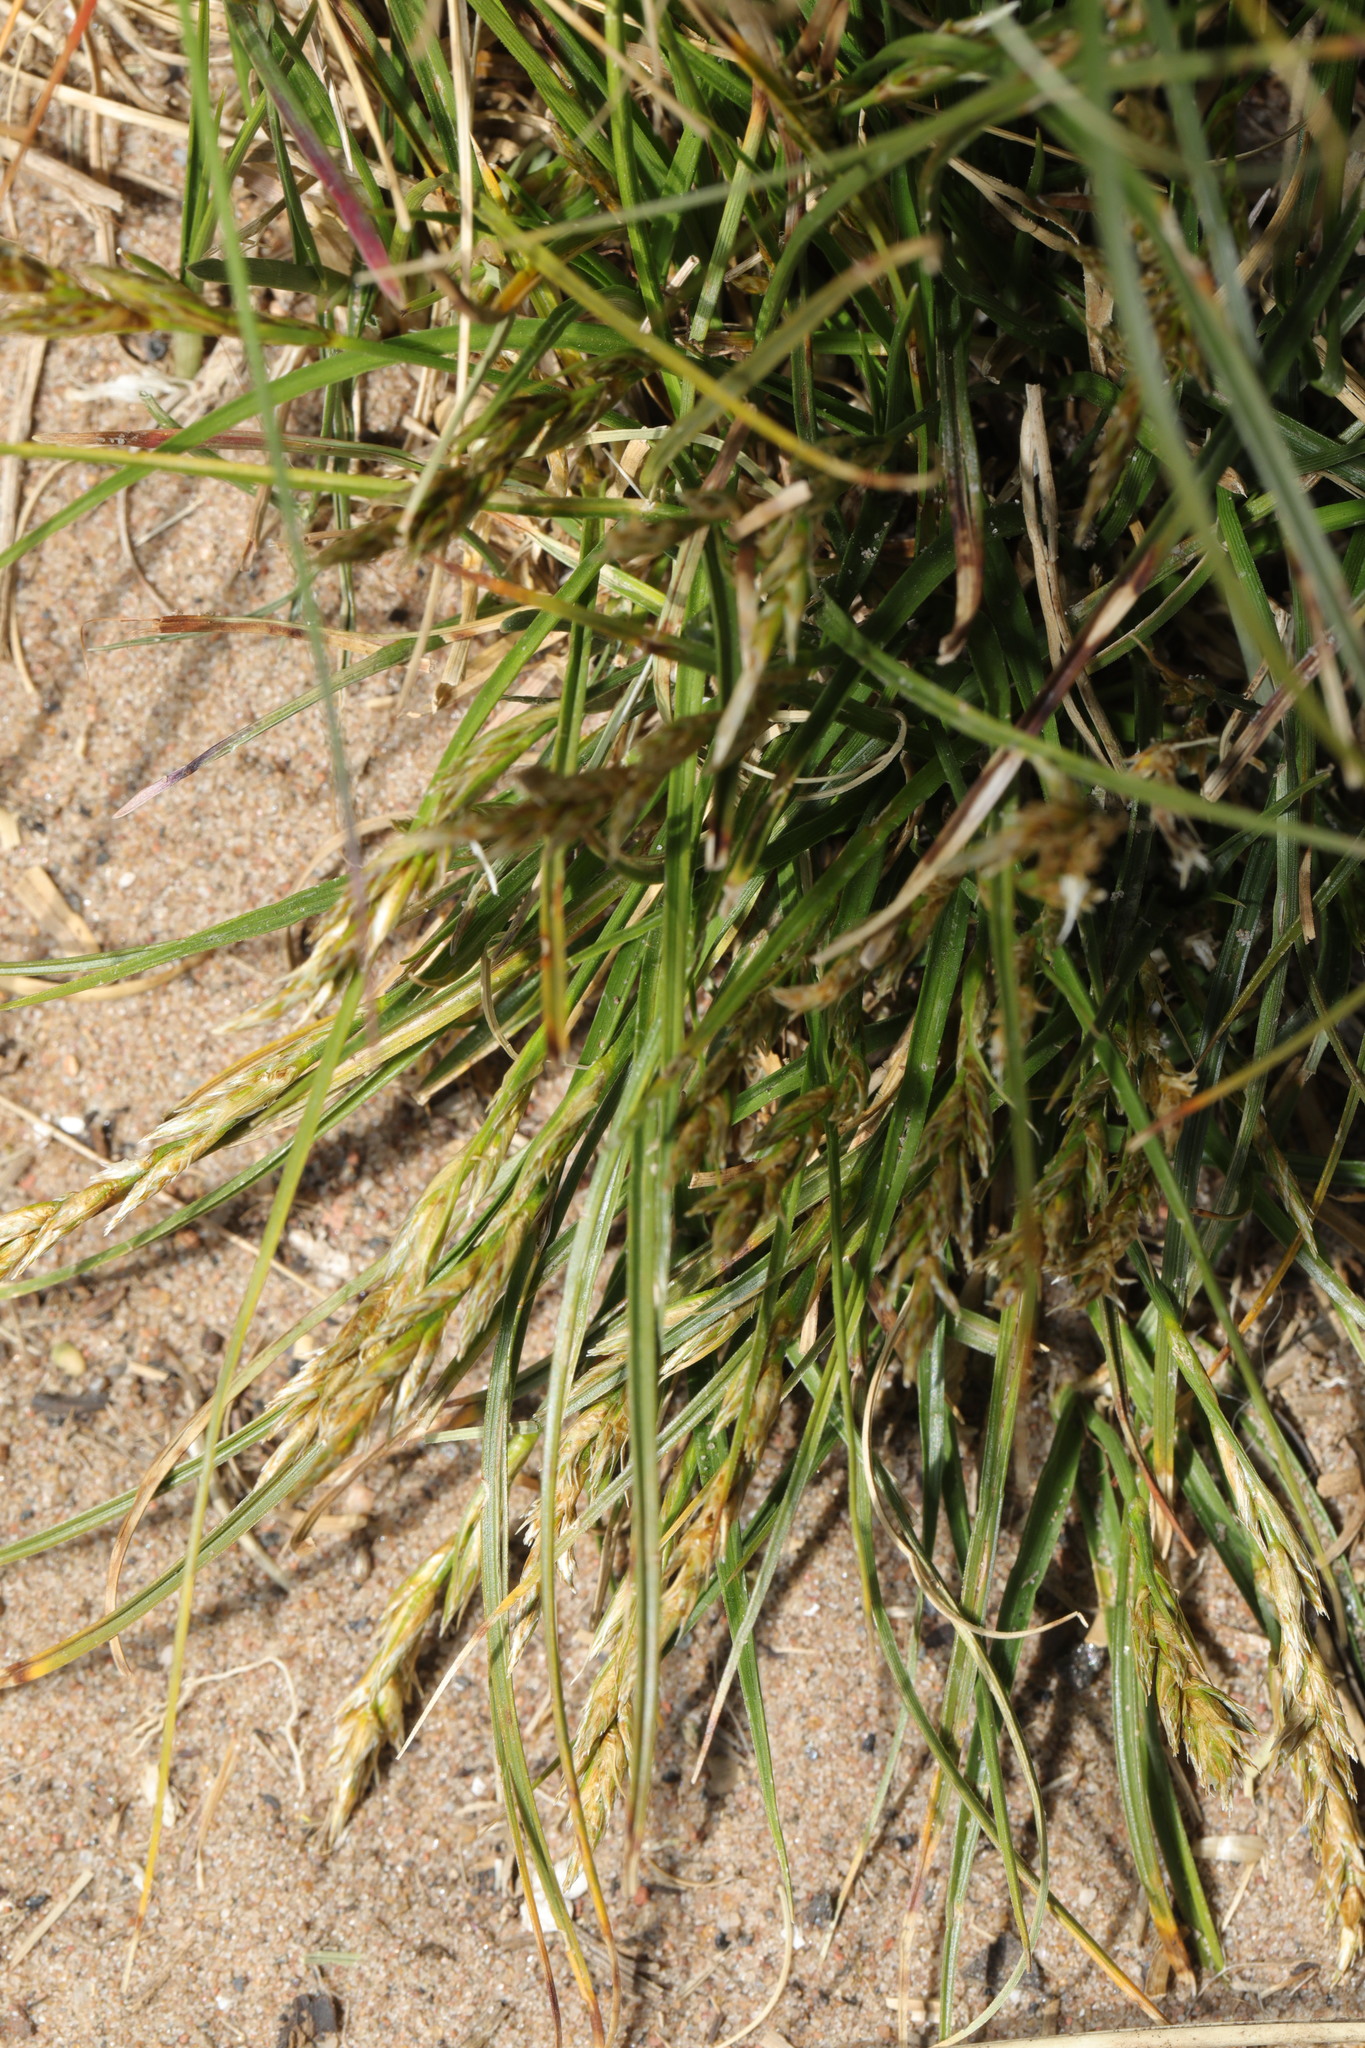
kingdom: Plantae
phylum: Tracheophyta
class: Liliopsida
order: Poales
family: Cyperaceae
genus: Carex
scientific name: Carex arenaria
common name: Sand sedge
